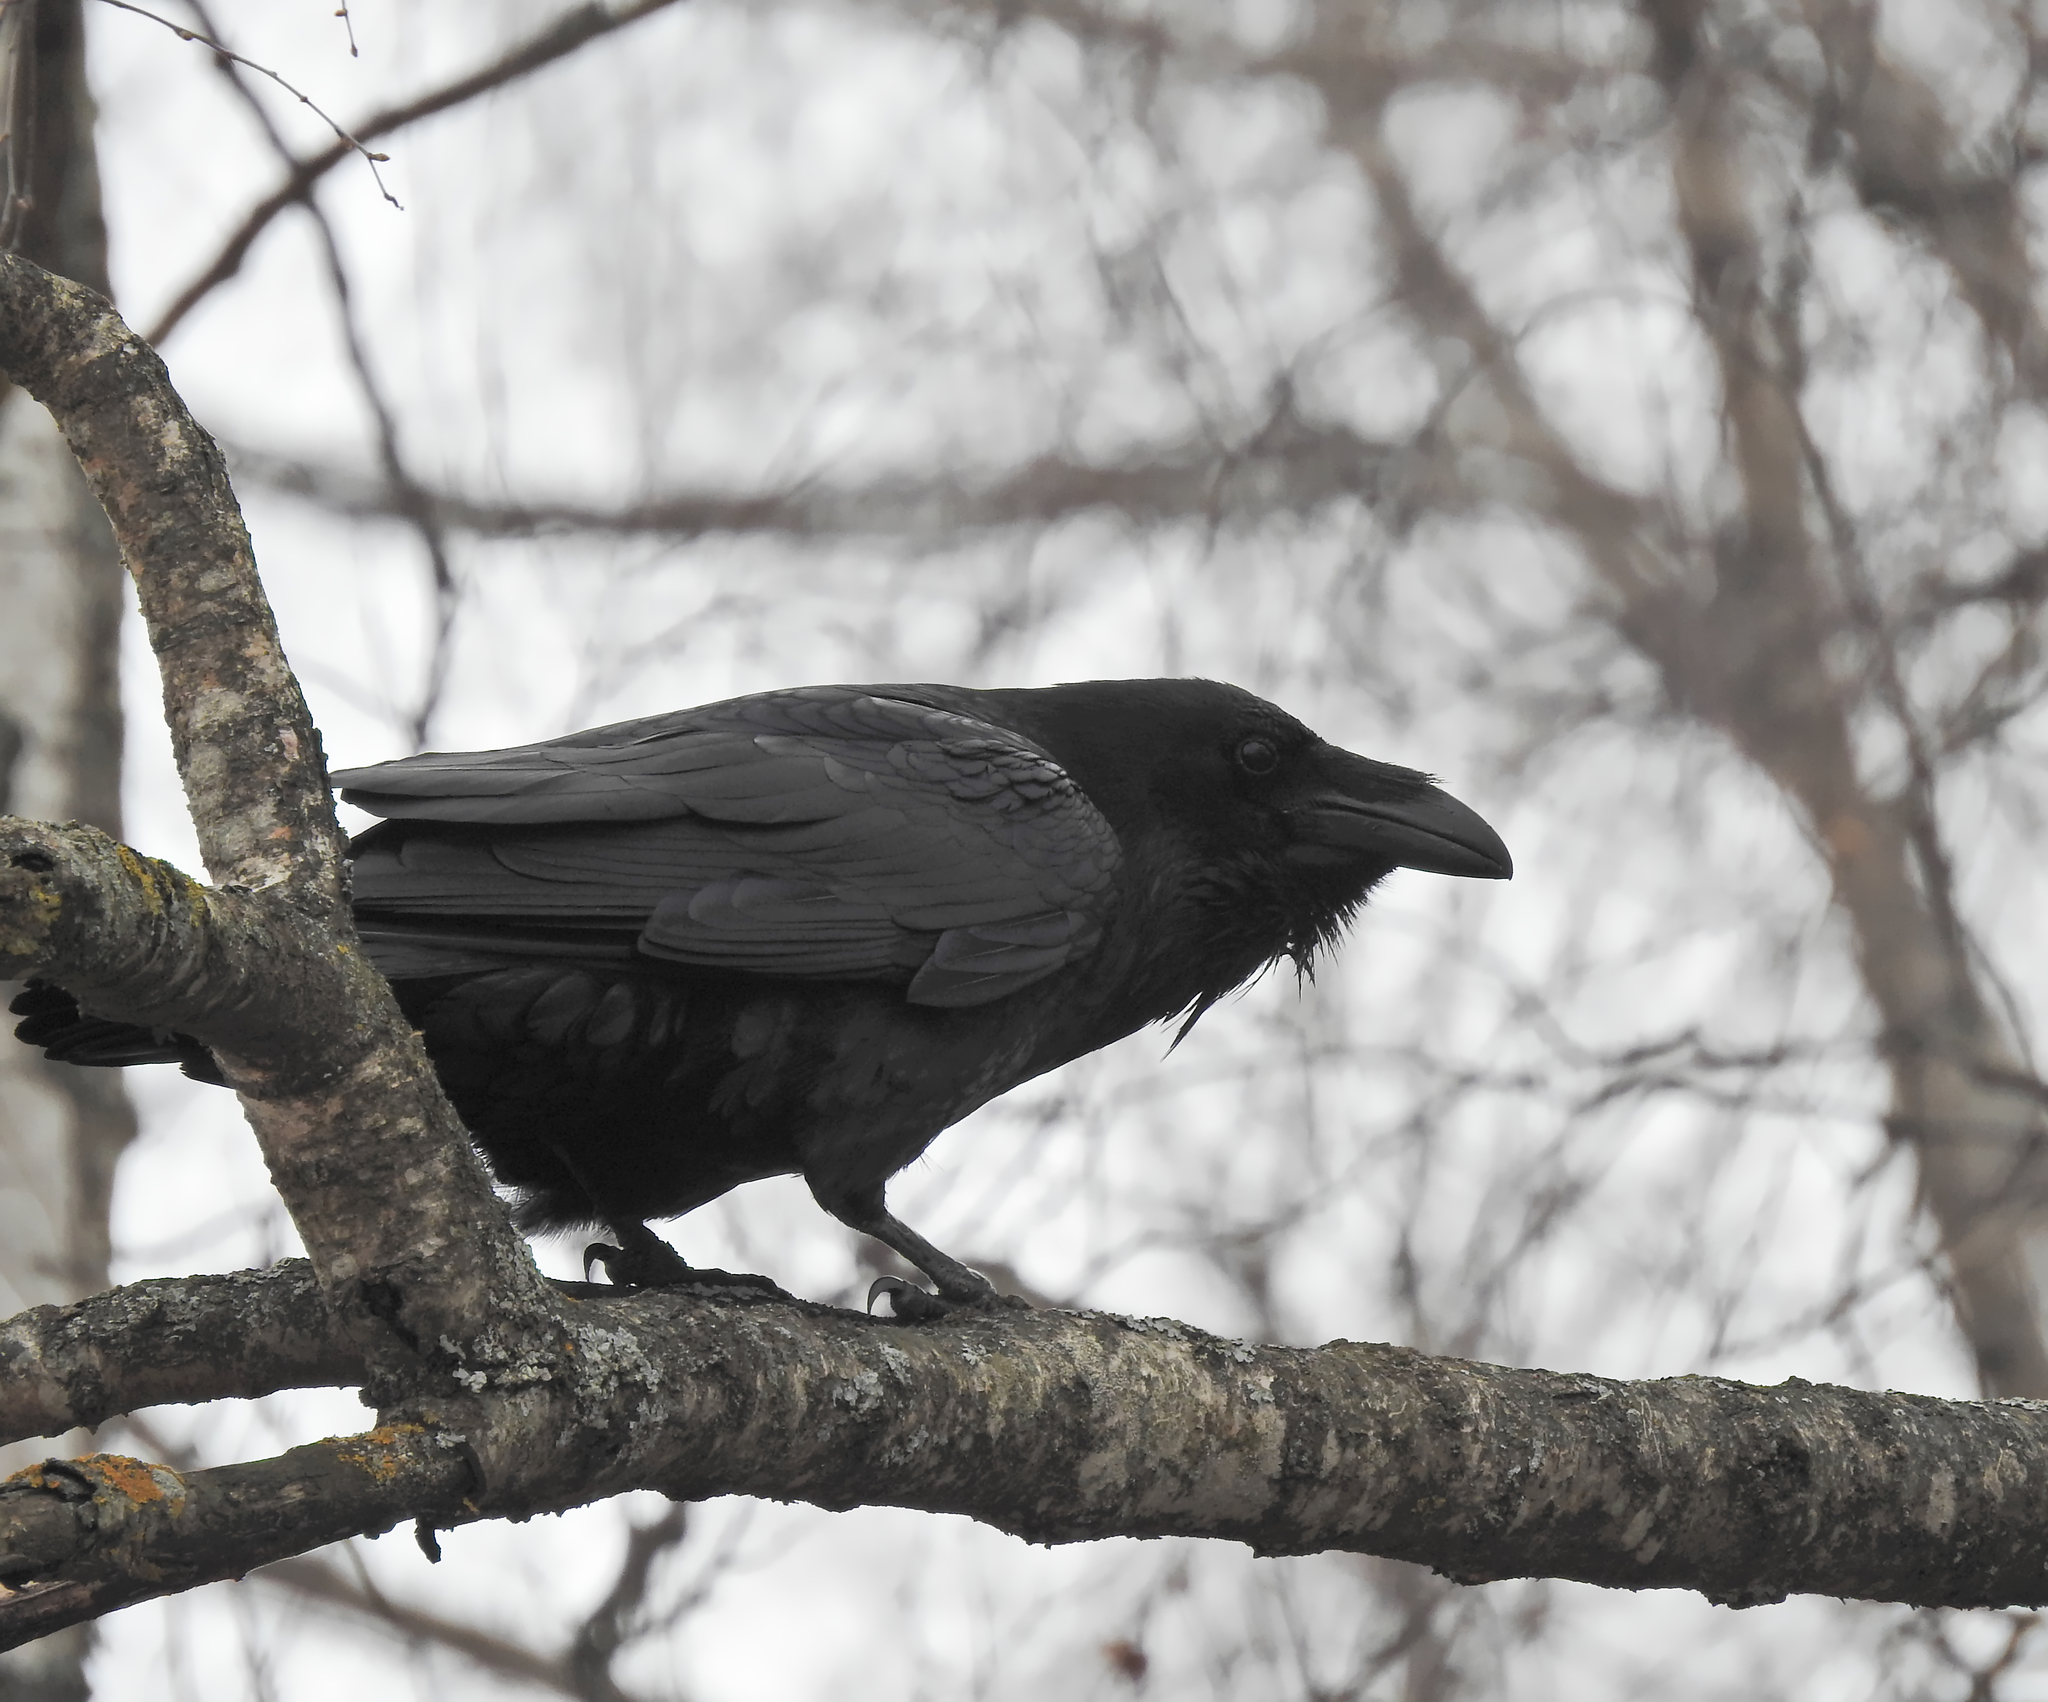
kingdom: Animalia
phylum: Chordata
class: Aves
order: Passeriformes
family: Corvidae
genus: Corvus
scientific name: Corvus corax
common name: Common raven
